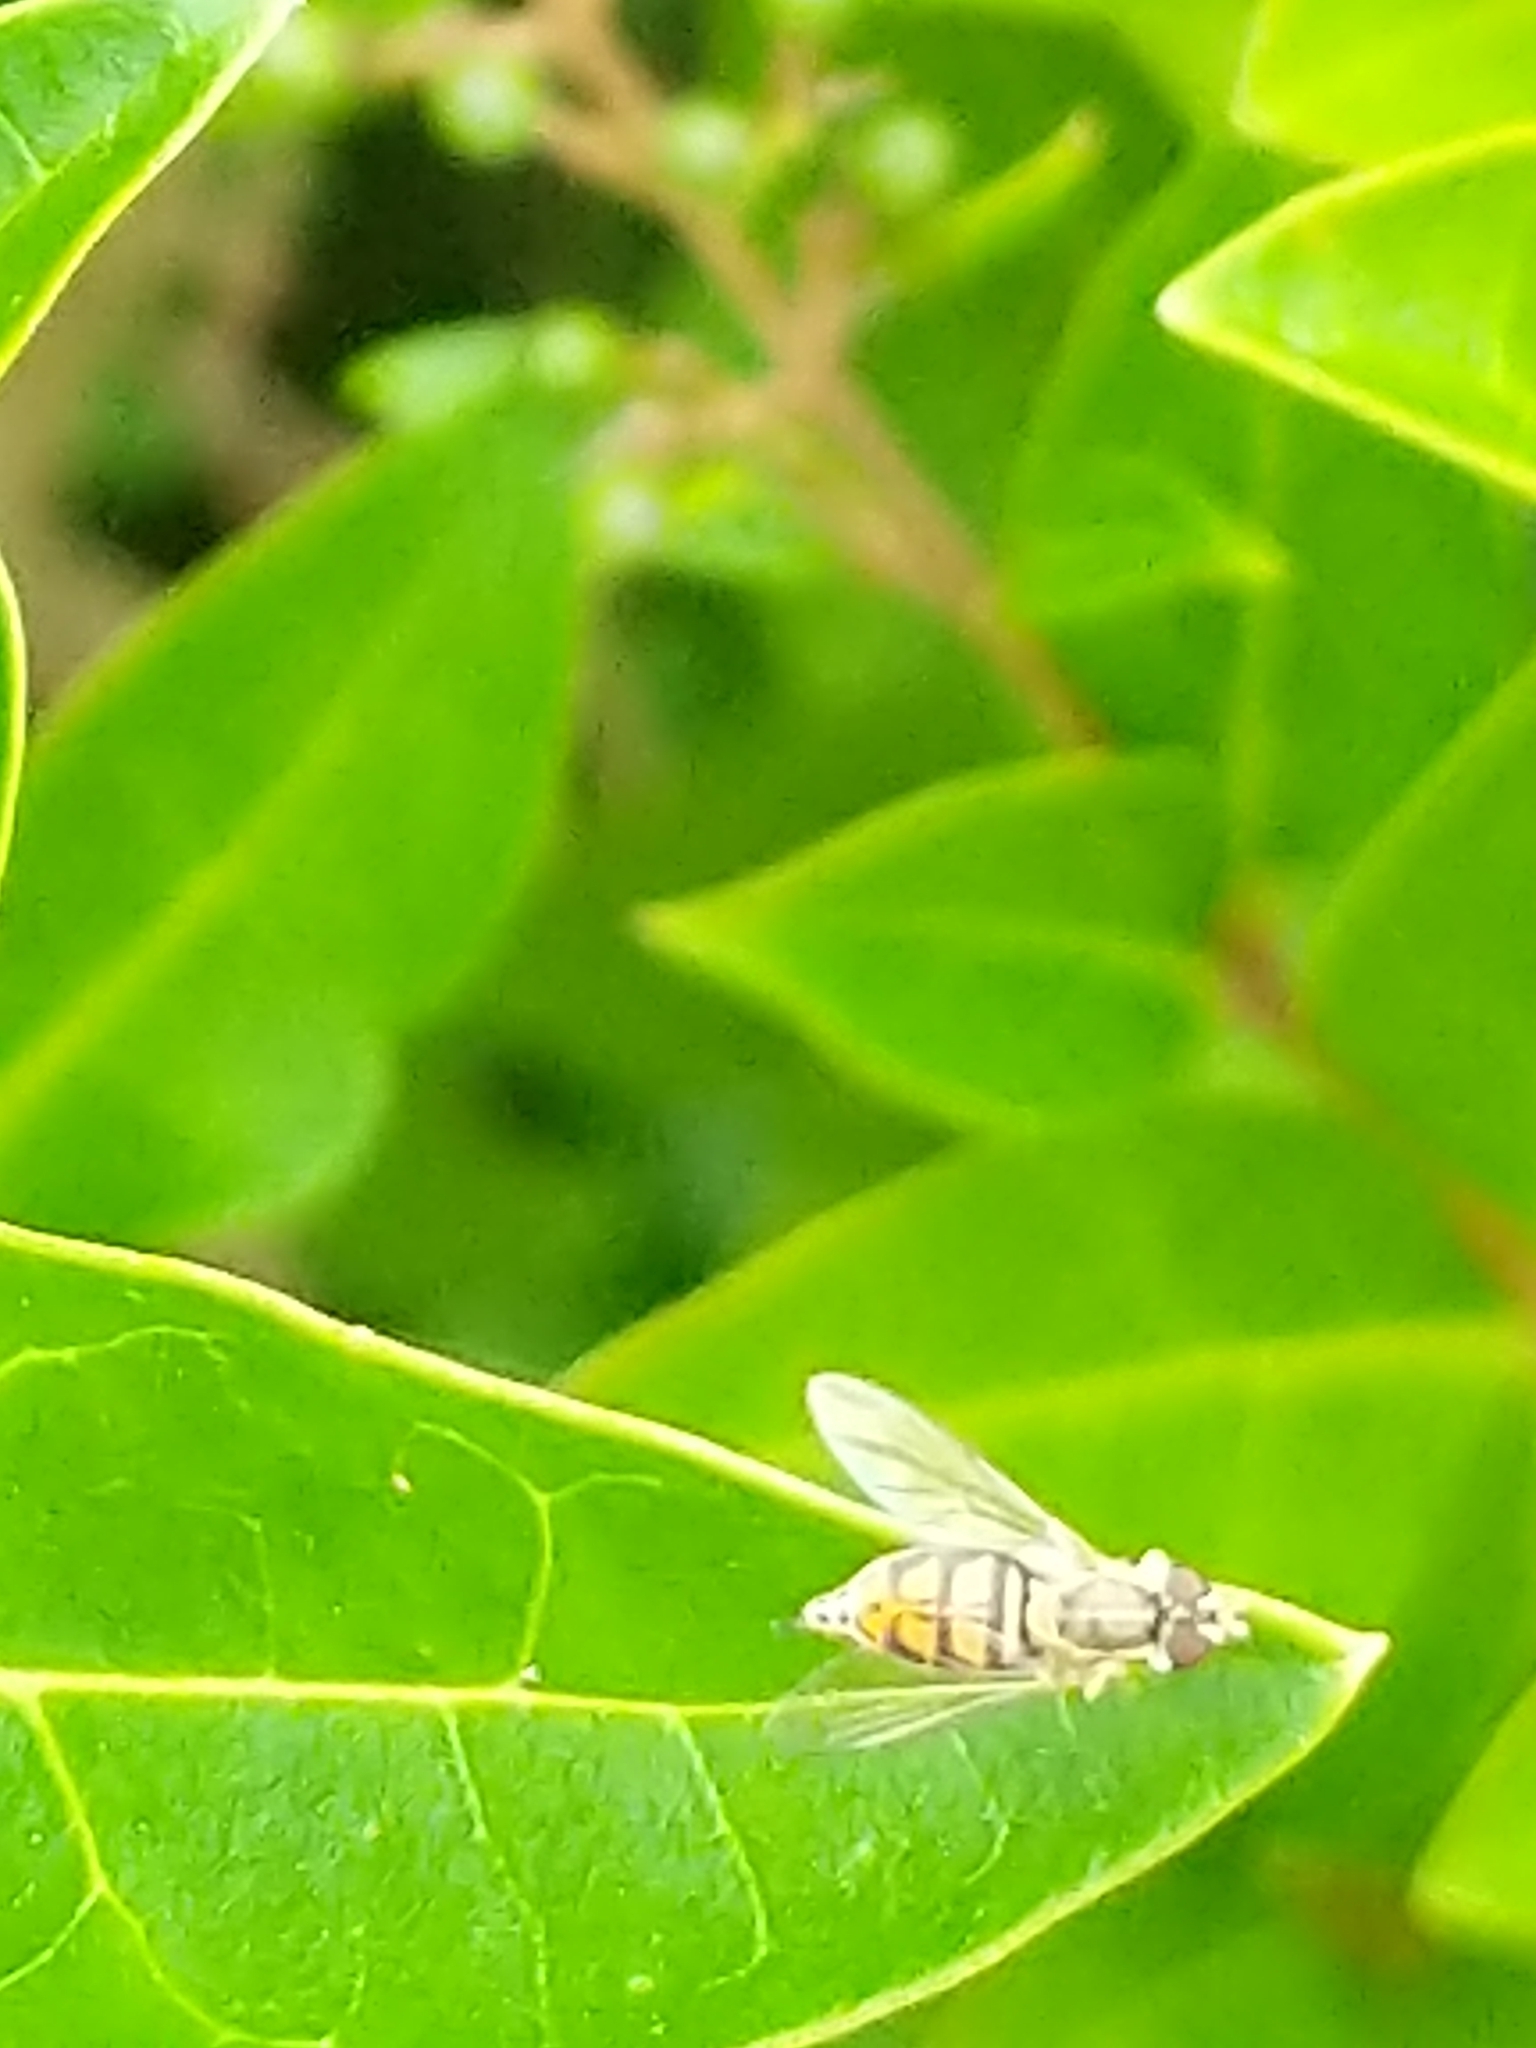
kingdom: Animalia
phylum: Arthropoda
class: Insecta
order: Diptera
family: Syrphidae
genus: Toxomerus
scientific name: Toxomerus marginatus
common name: Syrphid fly
